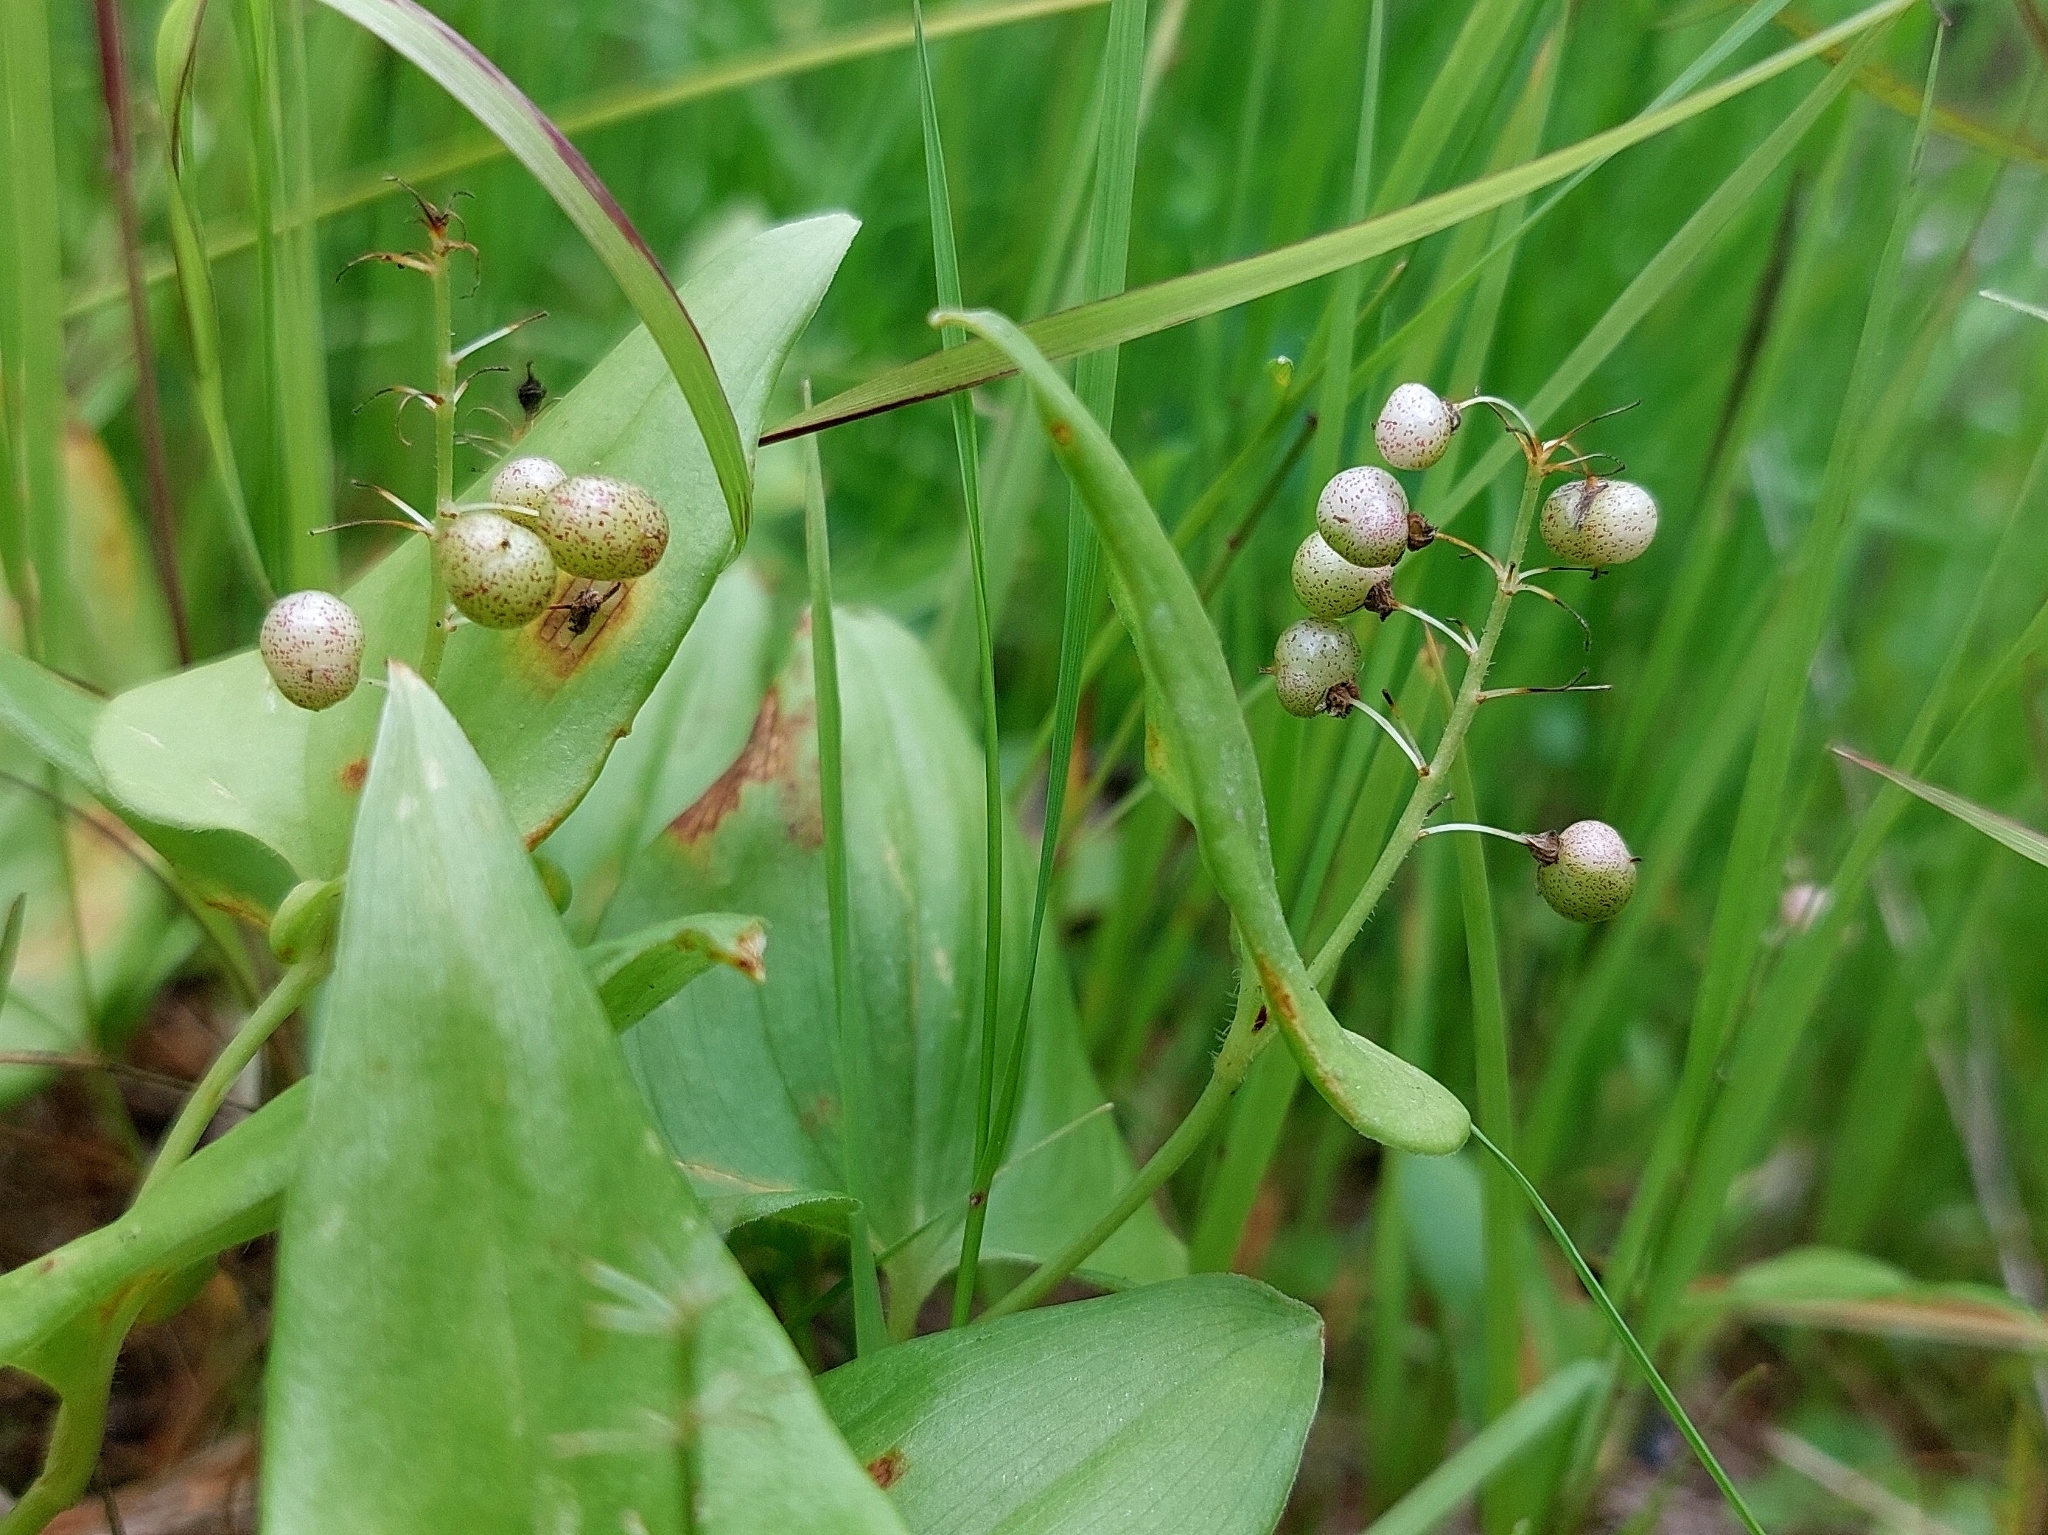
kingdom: Plantae
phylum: Tracheophyta
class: Liliopsida
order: Asparagales
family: Asparagaceae
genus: Maianthemum
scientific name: Maianthemum bifolium
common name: May lily
